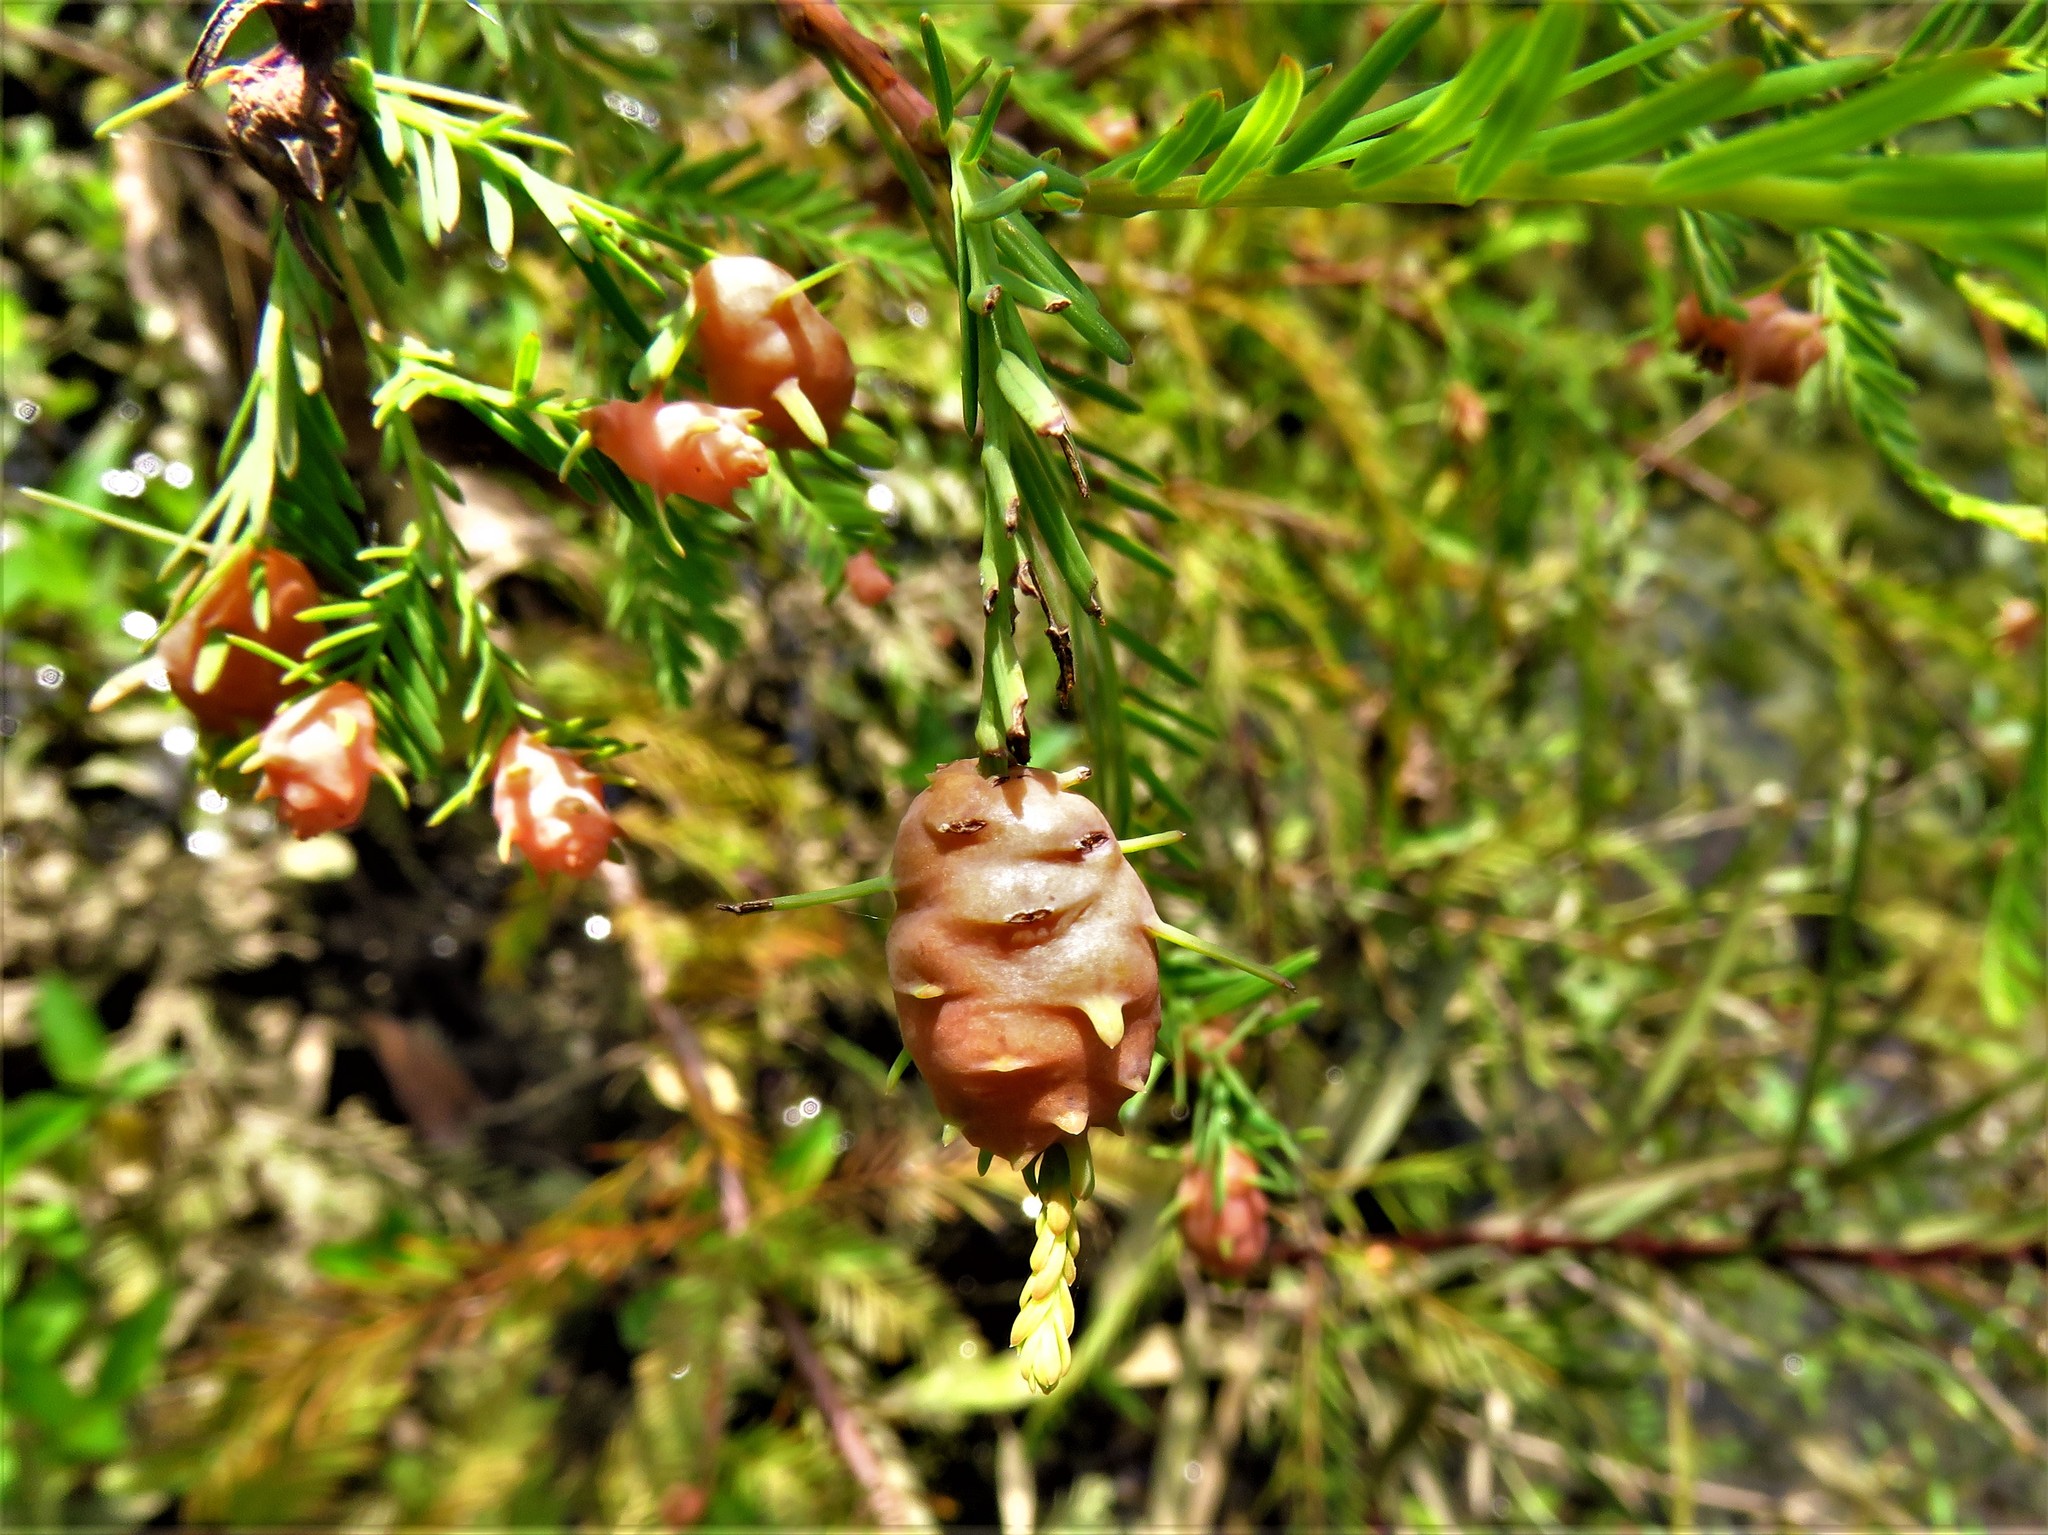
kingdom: Animalia
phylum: Arthropoda
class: Insecta
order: Diptera
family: Cecidomyiidae
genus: Taxodiomyia
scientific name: Taxodiomyia cupressiananassa
